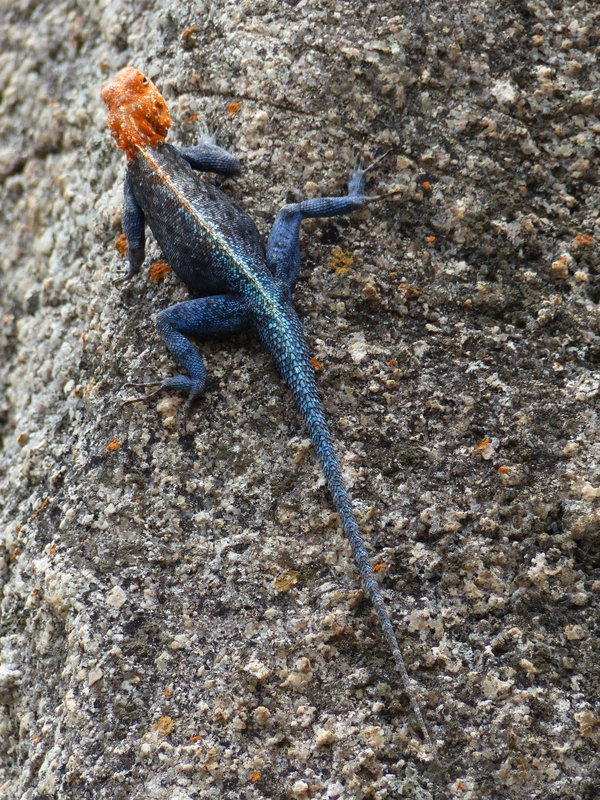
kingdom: Animalia
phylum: Chordata
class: Squamata
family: Agamidae
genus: Agama
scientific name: Agama kirkii
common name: Kirk's rock agama
